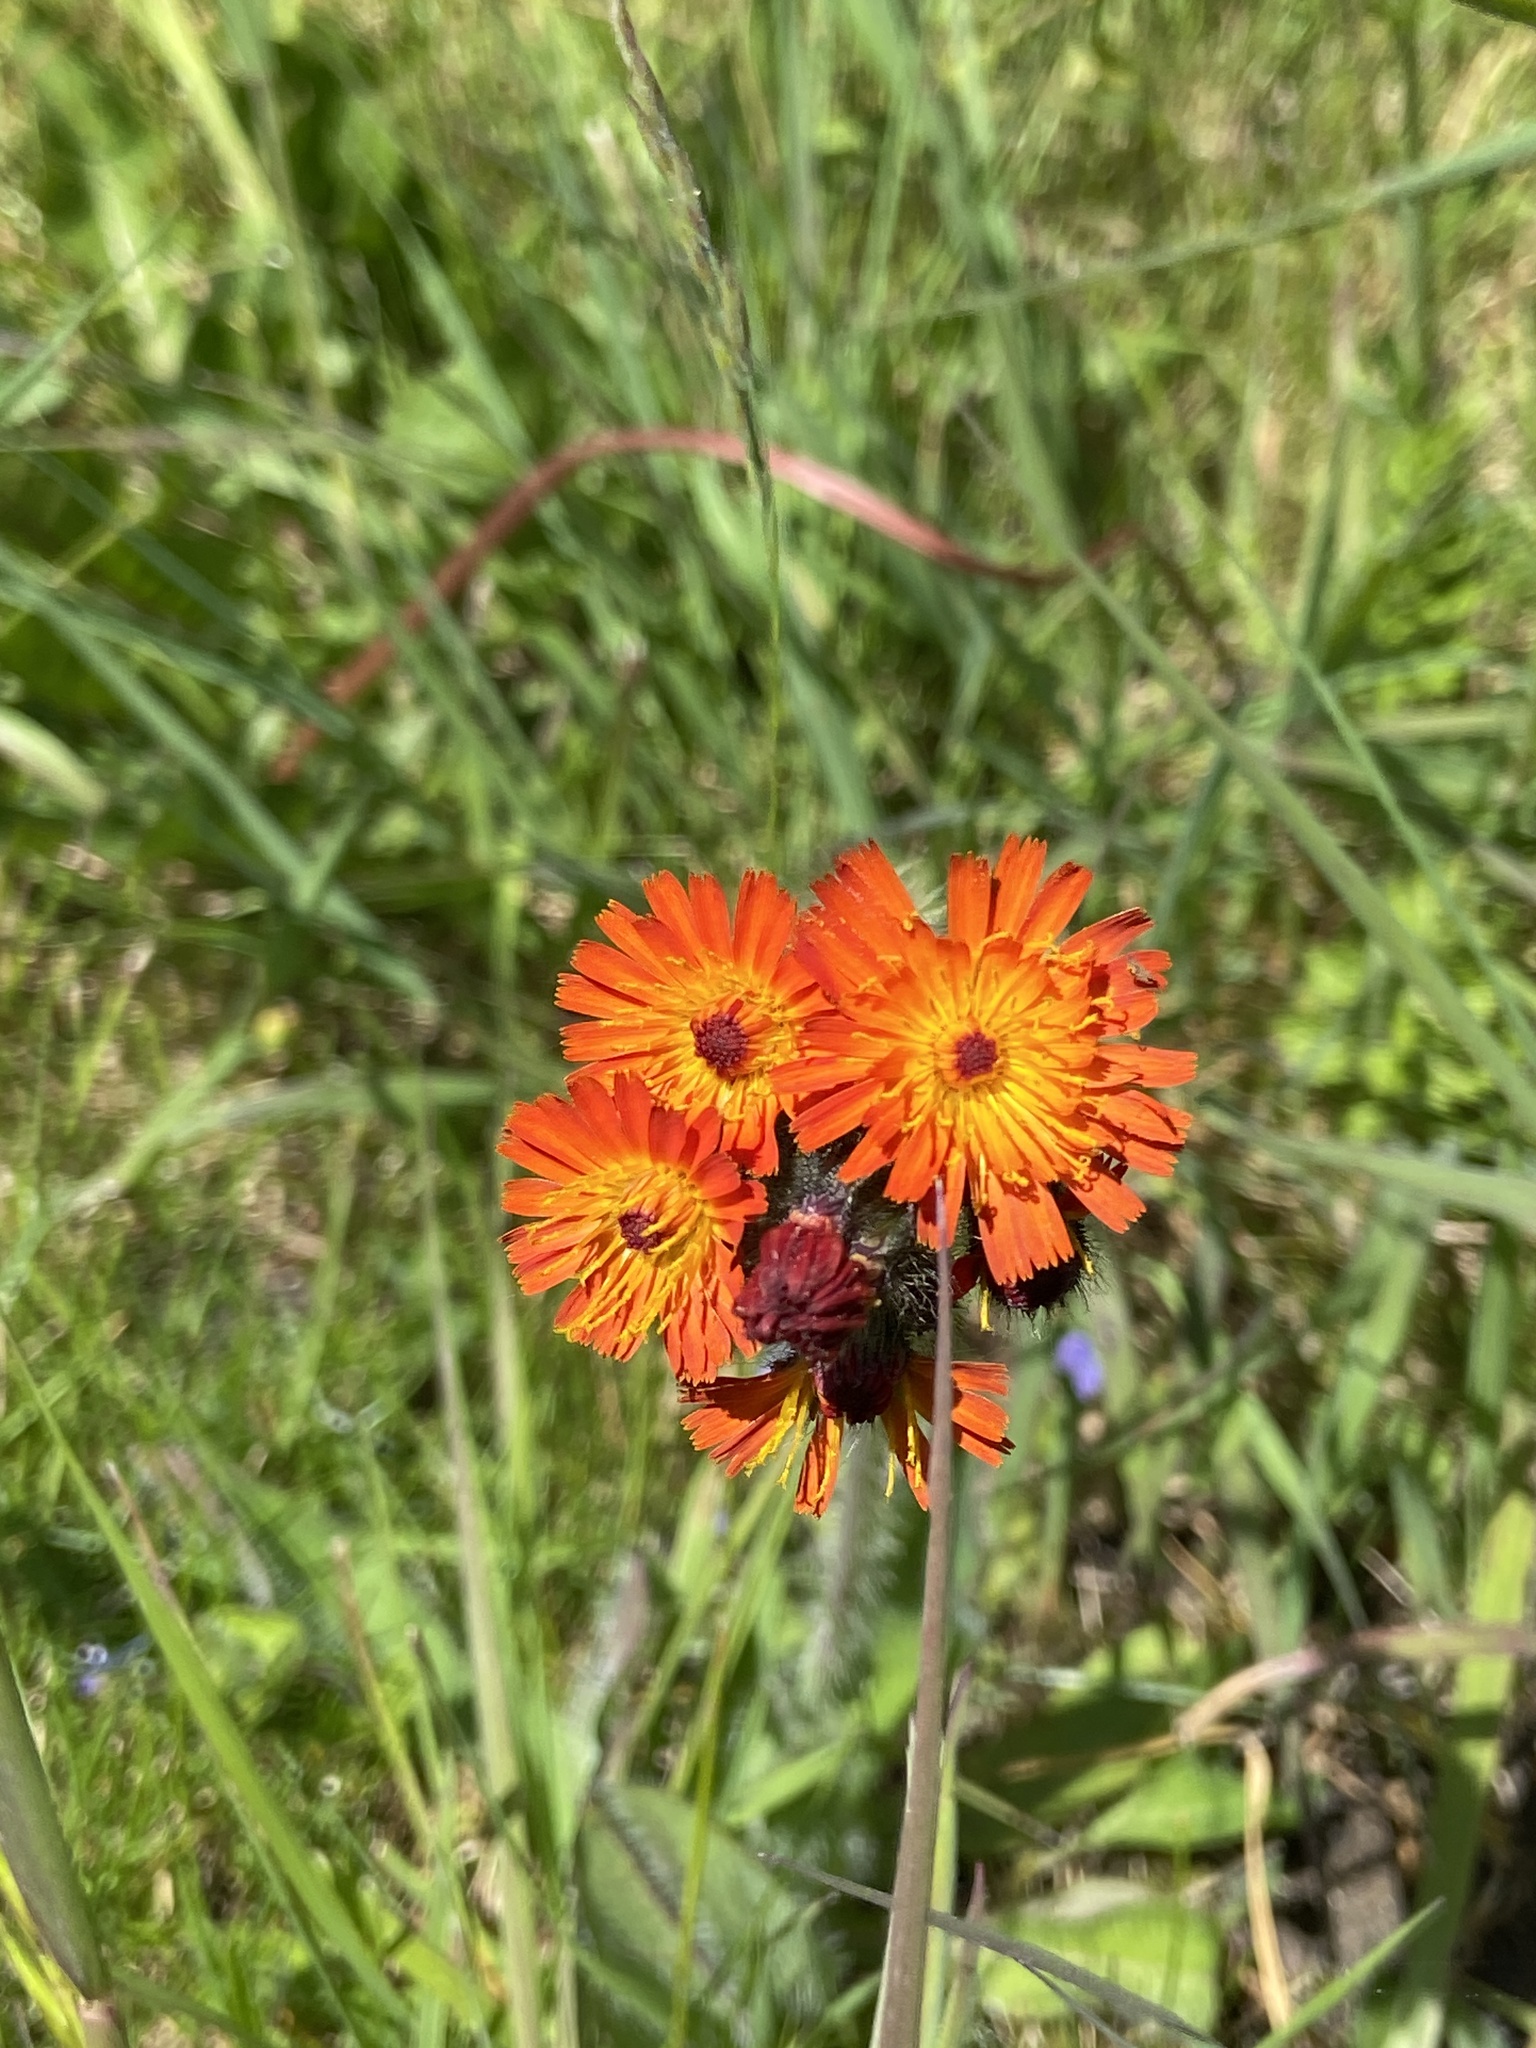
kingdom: Plantae
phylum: Tracheophyta
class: Magnoliopsida
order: Asterales
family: Asteraceae
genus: Pilosella
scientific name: Pilosella aurantiaca
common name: Fox-and-cubs
